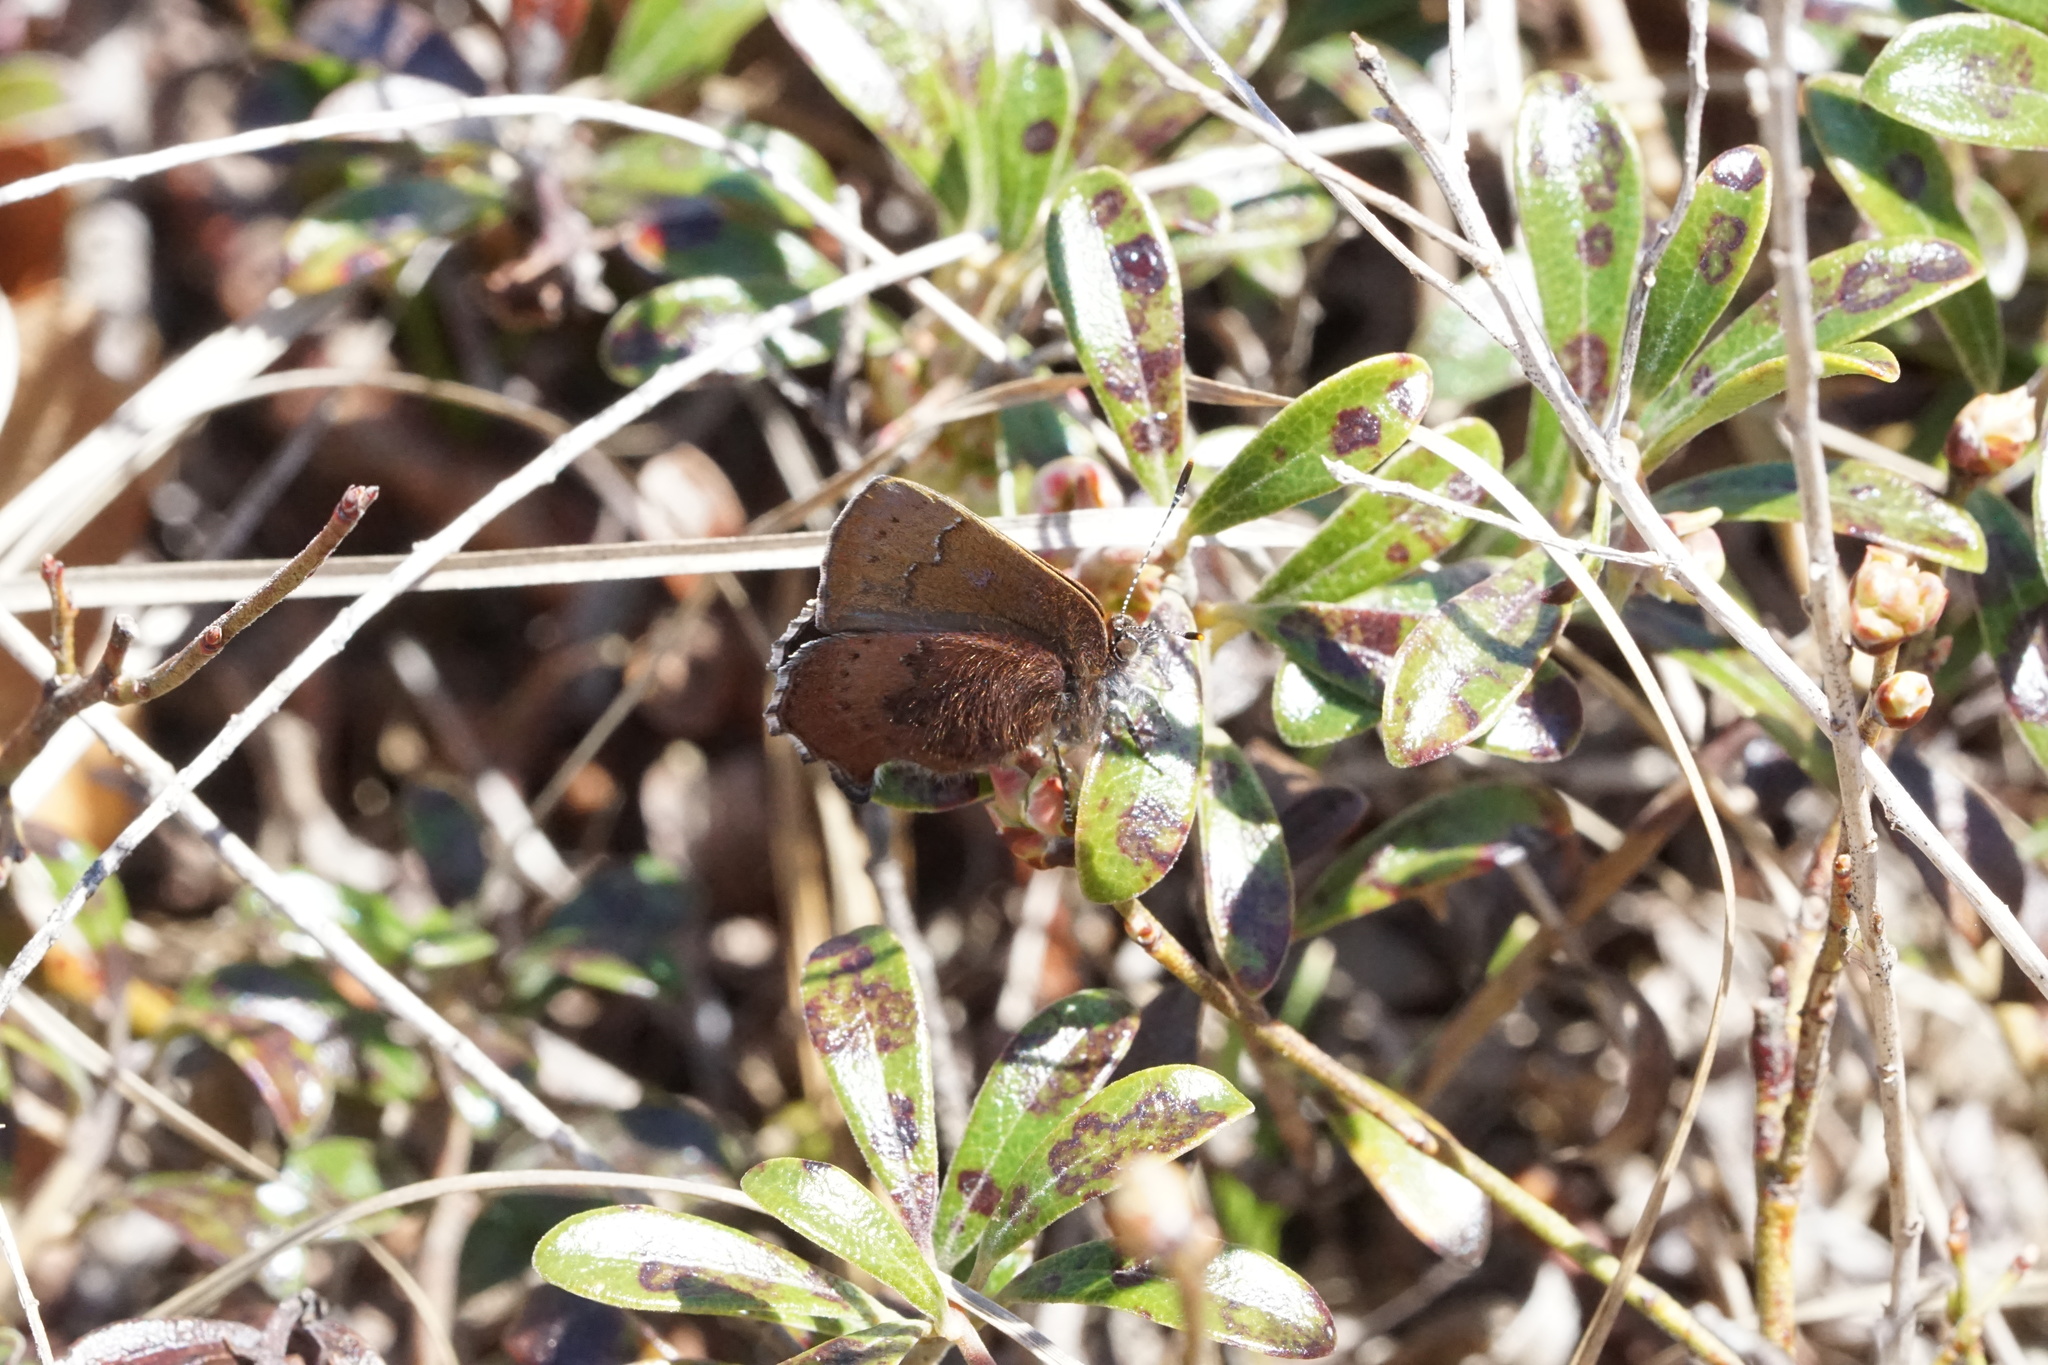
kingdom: Animalia
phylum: Arthropoda
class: Insecta
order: Lepidoptera
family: Lycaenidae
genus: Incisalia
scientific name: Incisalia irioides
